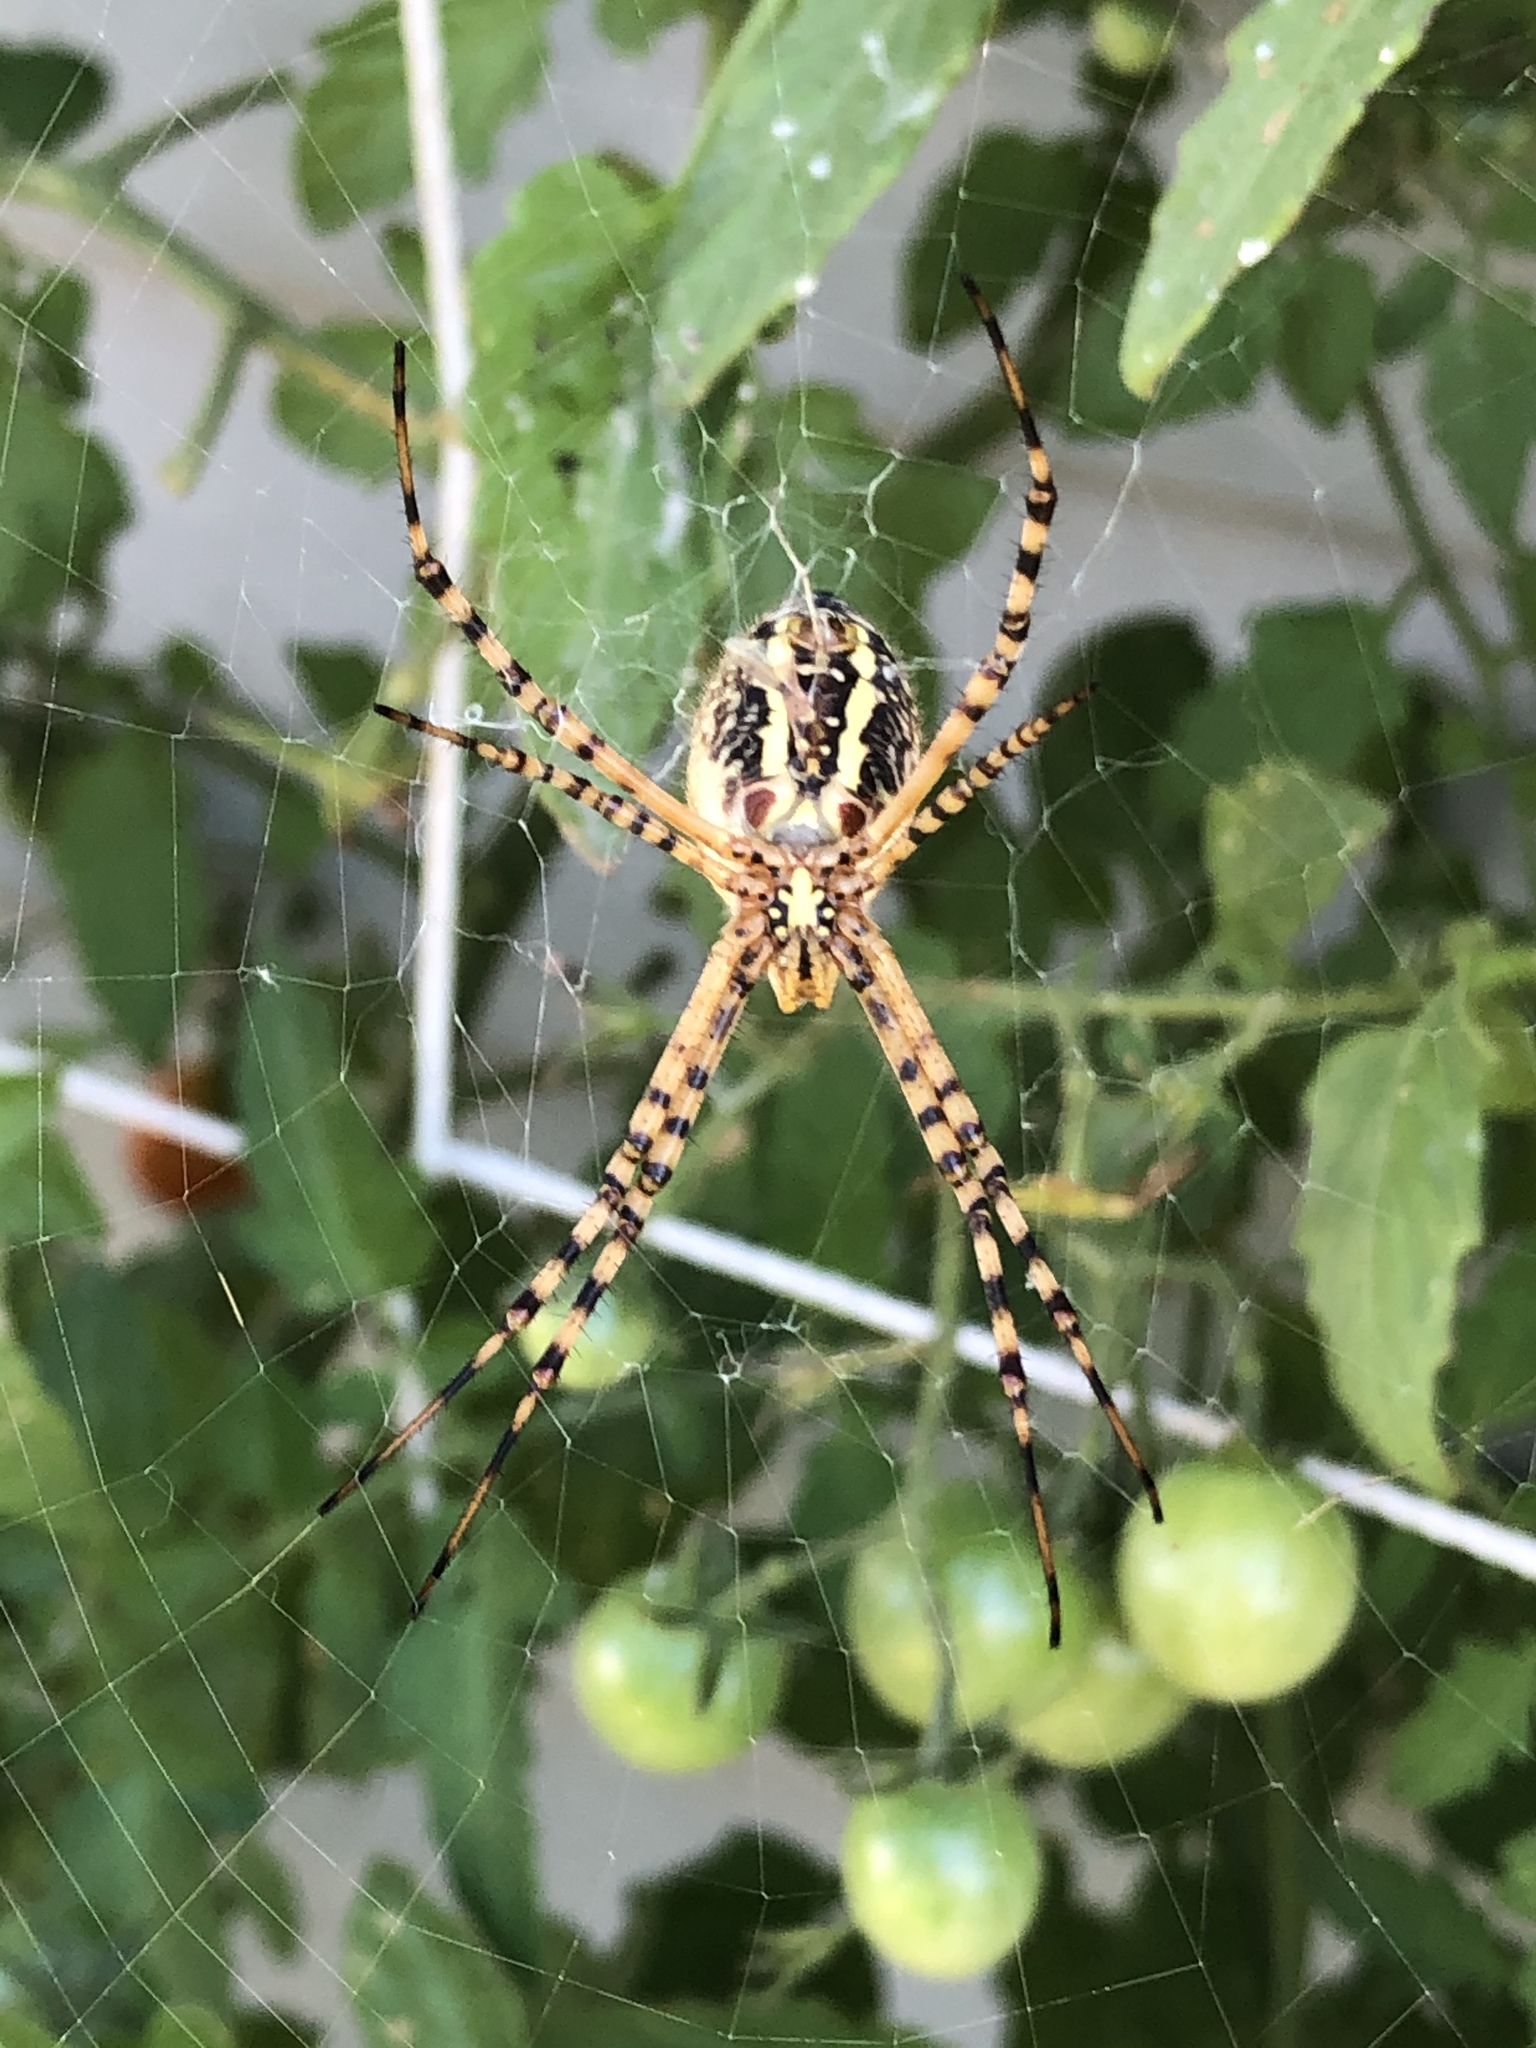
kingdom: Animalia
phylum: Arthropoda
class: Arachnida
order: Araneae
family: Araneidae
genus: Argiope
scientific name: Argiope trifasciata
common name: Banded garden spider
